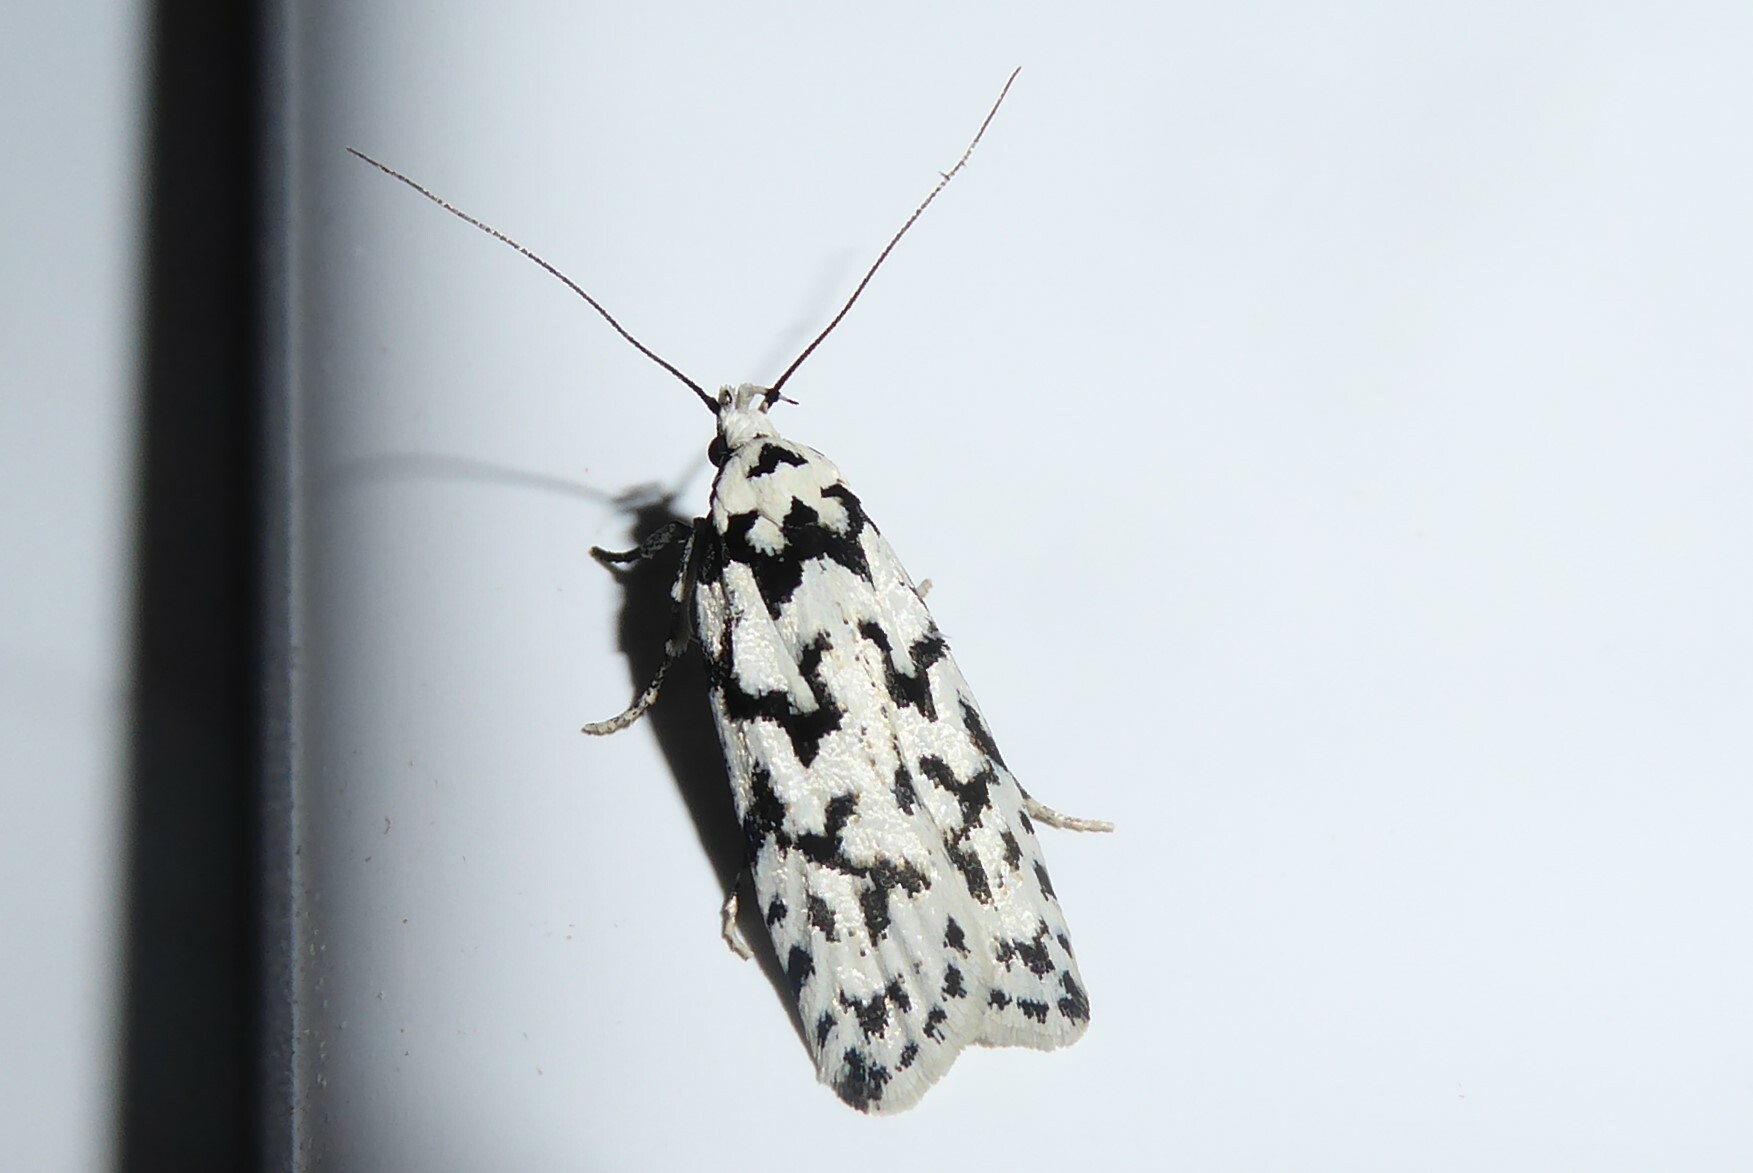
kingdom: Animalia
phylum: Arthropoda
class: Insecta
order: Lepidoptera
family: Oecophoridae
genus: Izatha
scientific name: Izatha katadiktya
